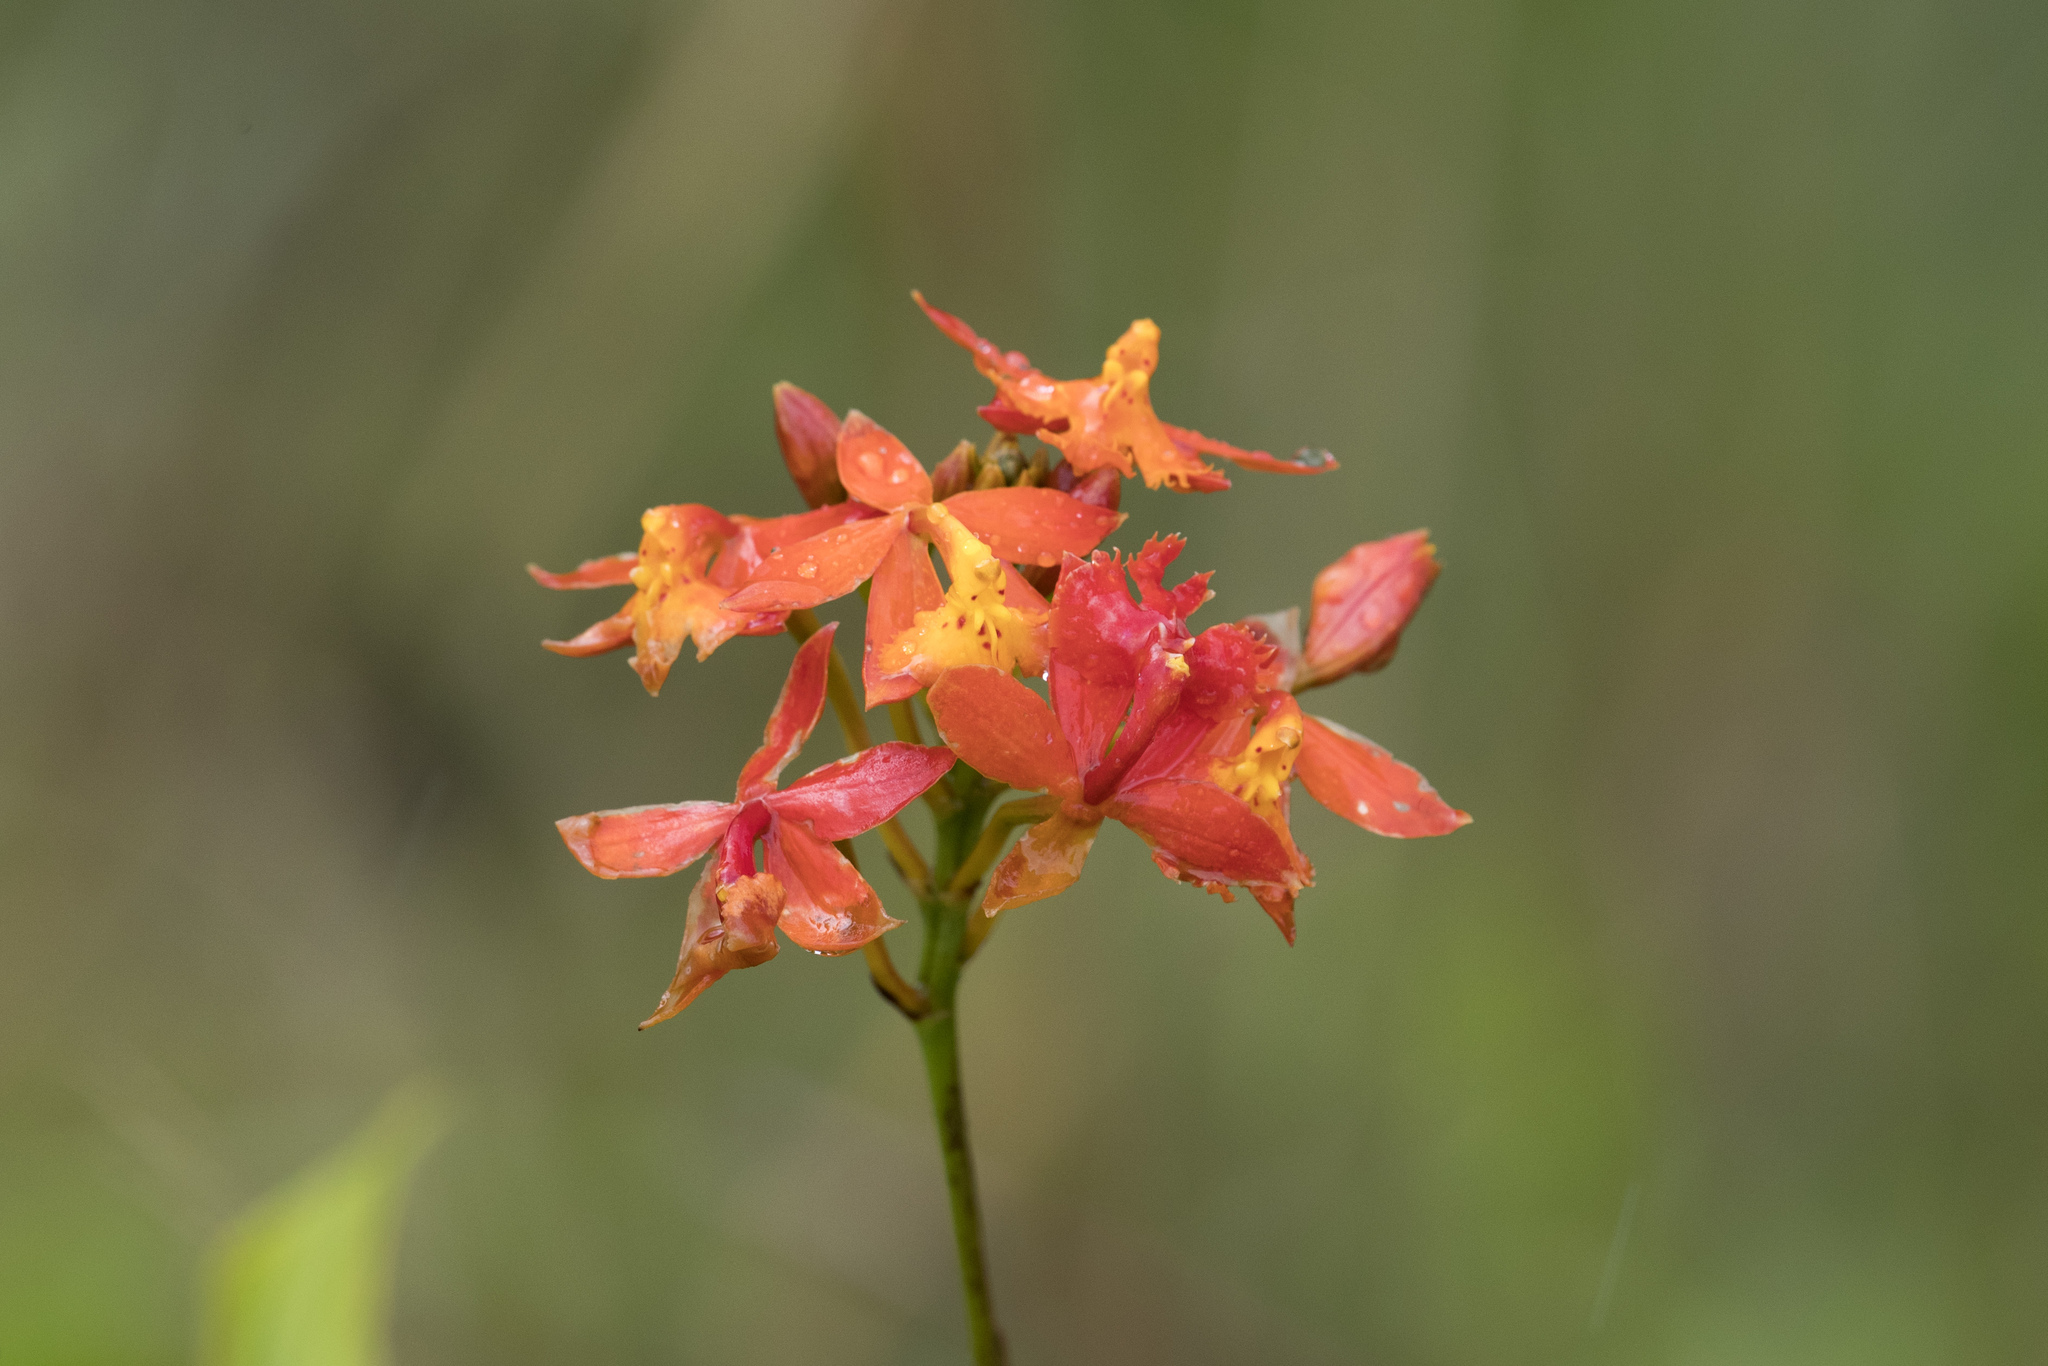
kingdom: Plantae
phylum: Tracheophyta
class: Liliopsida
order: Asparagales
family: Orchidaceae
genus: Epidendrum
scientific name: Epidendrum radicans
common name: Fire star orchid
